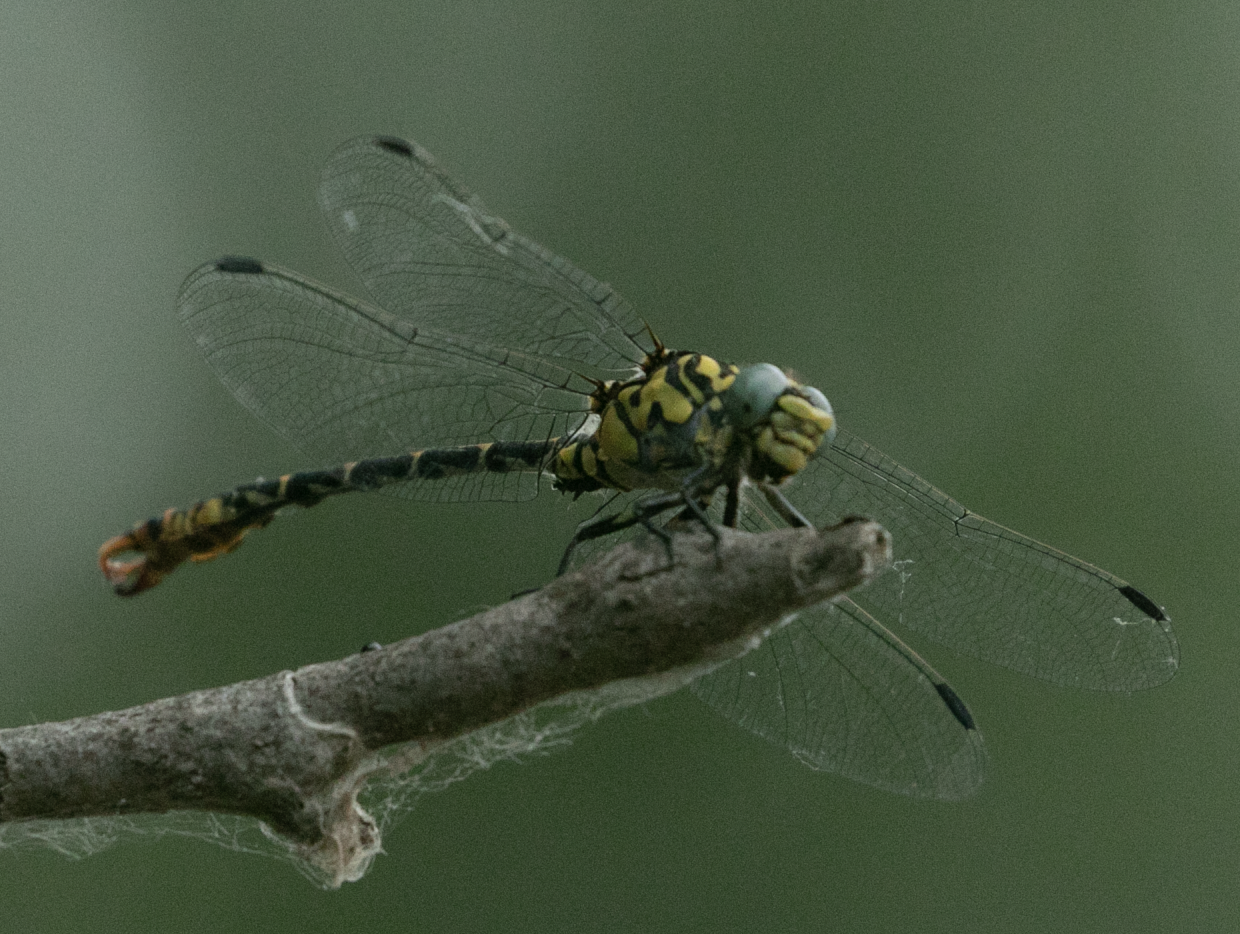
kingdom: Animalia
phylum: Arthropoda
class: Insecta
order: Odonata
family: Gomphidae
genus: Onychogomphus
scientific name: Onychogomphus forcipatus
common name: Small pincertail
